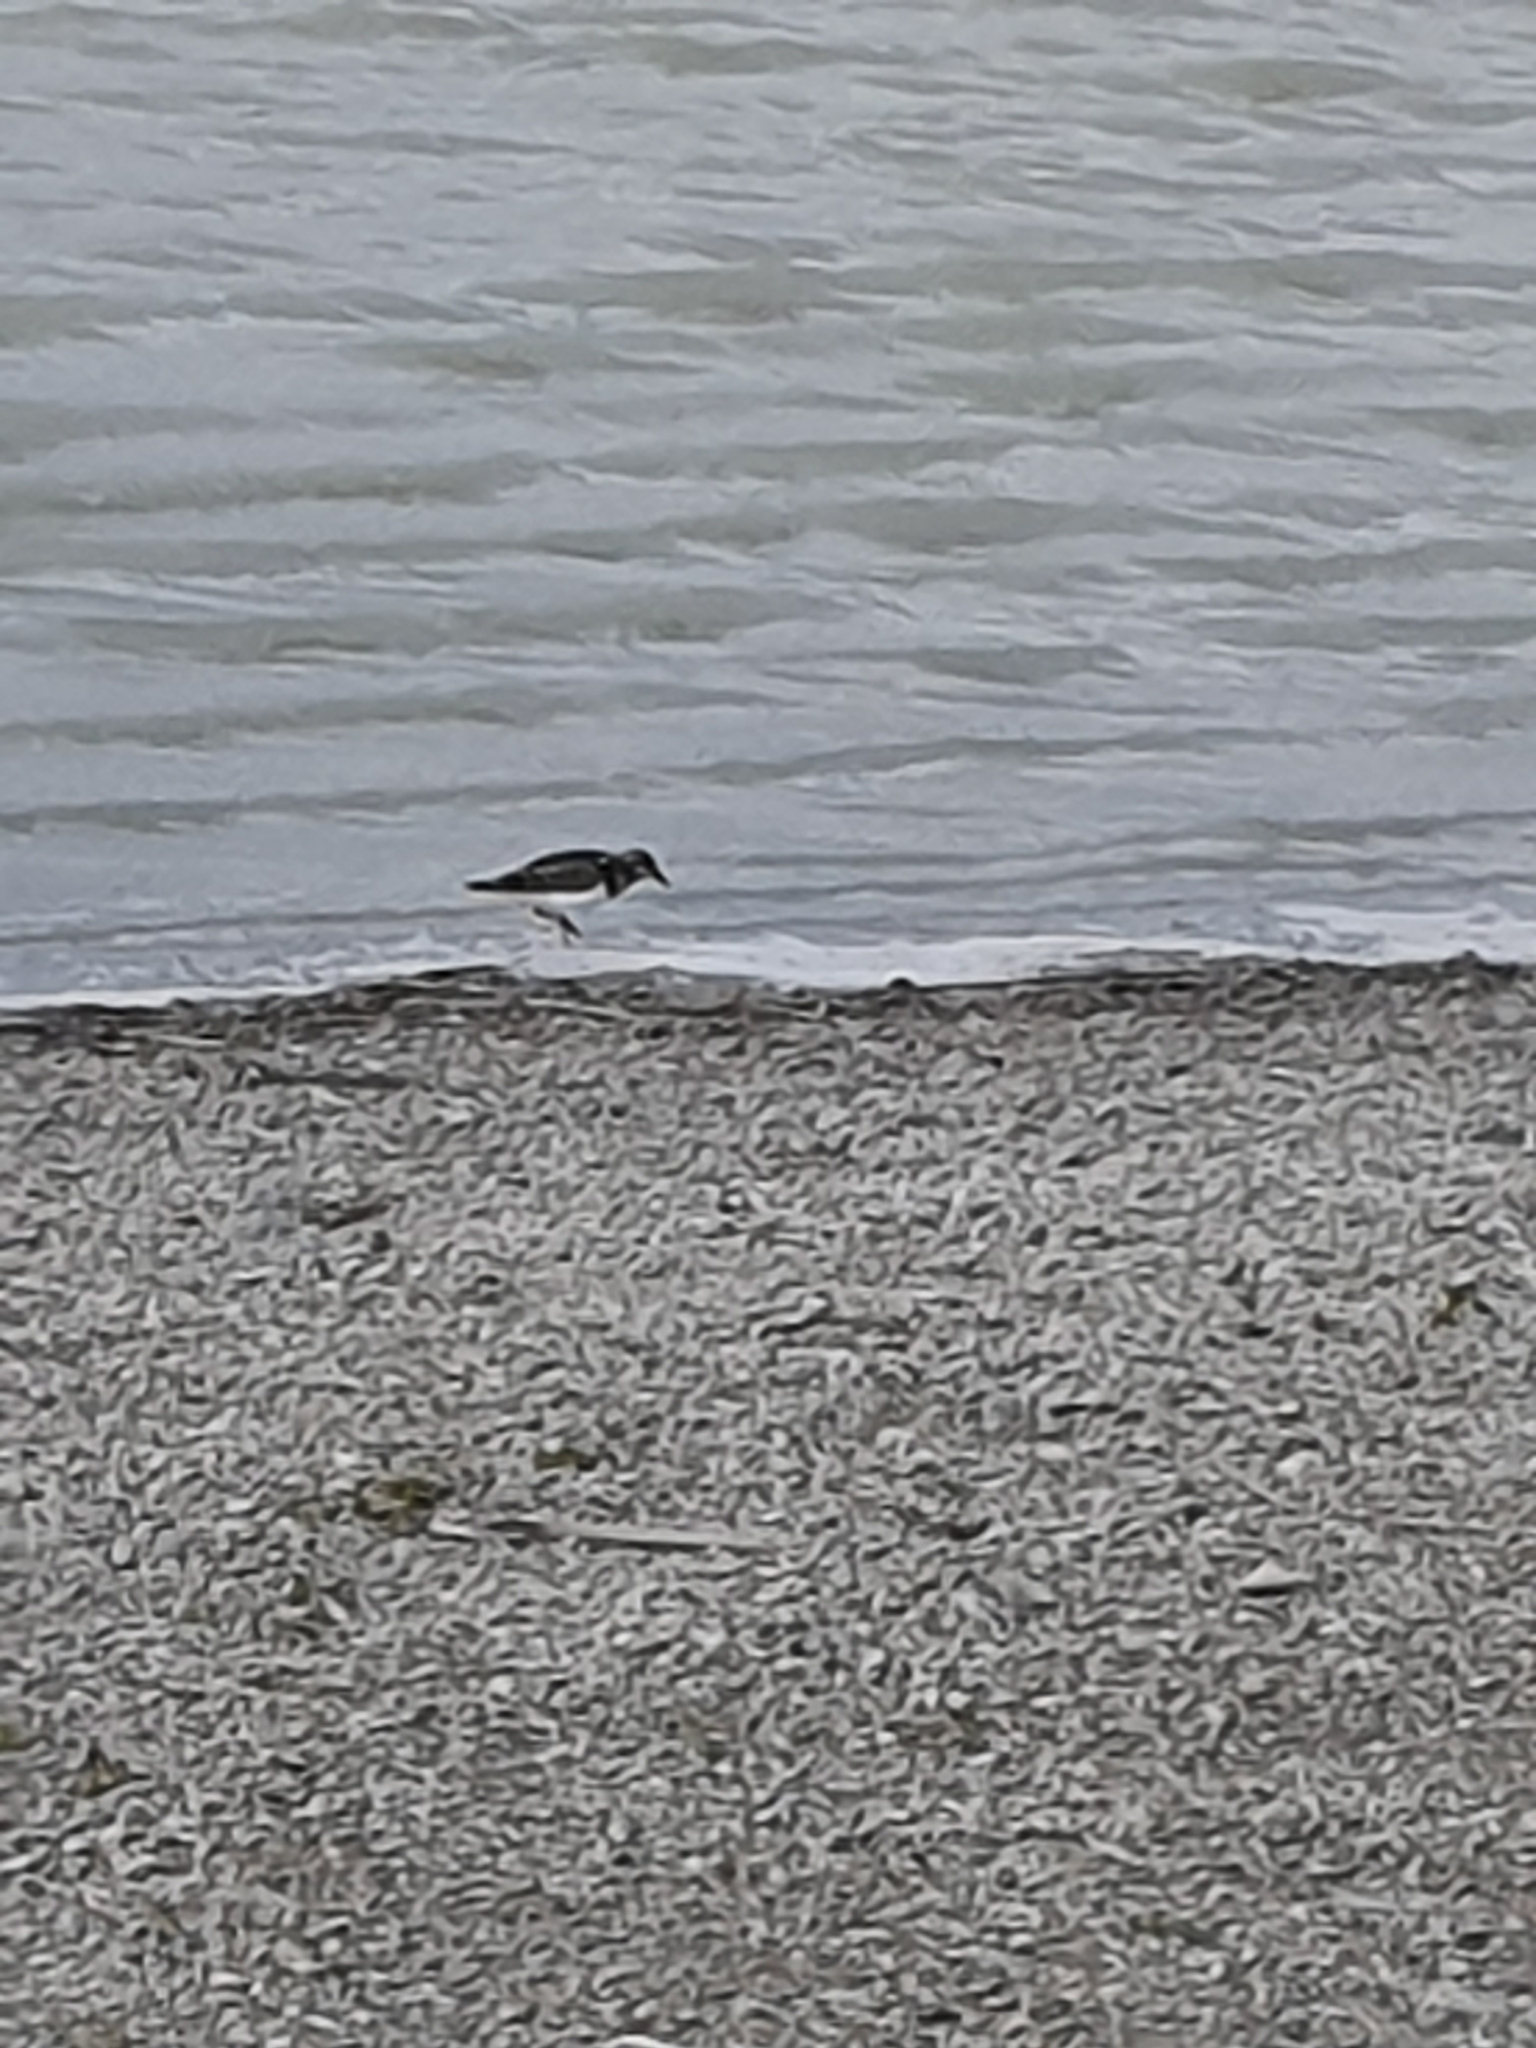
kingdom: Animalia
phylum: Chordata
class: Aves
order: Charadriiformes
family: Scolopacidae
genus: Arenaria
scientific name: Arenaria interpres
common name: Ruddy turnstone
